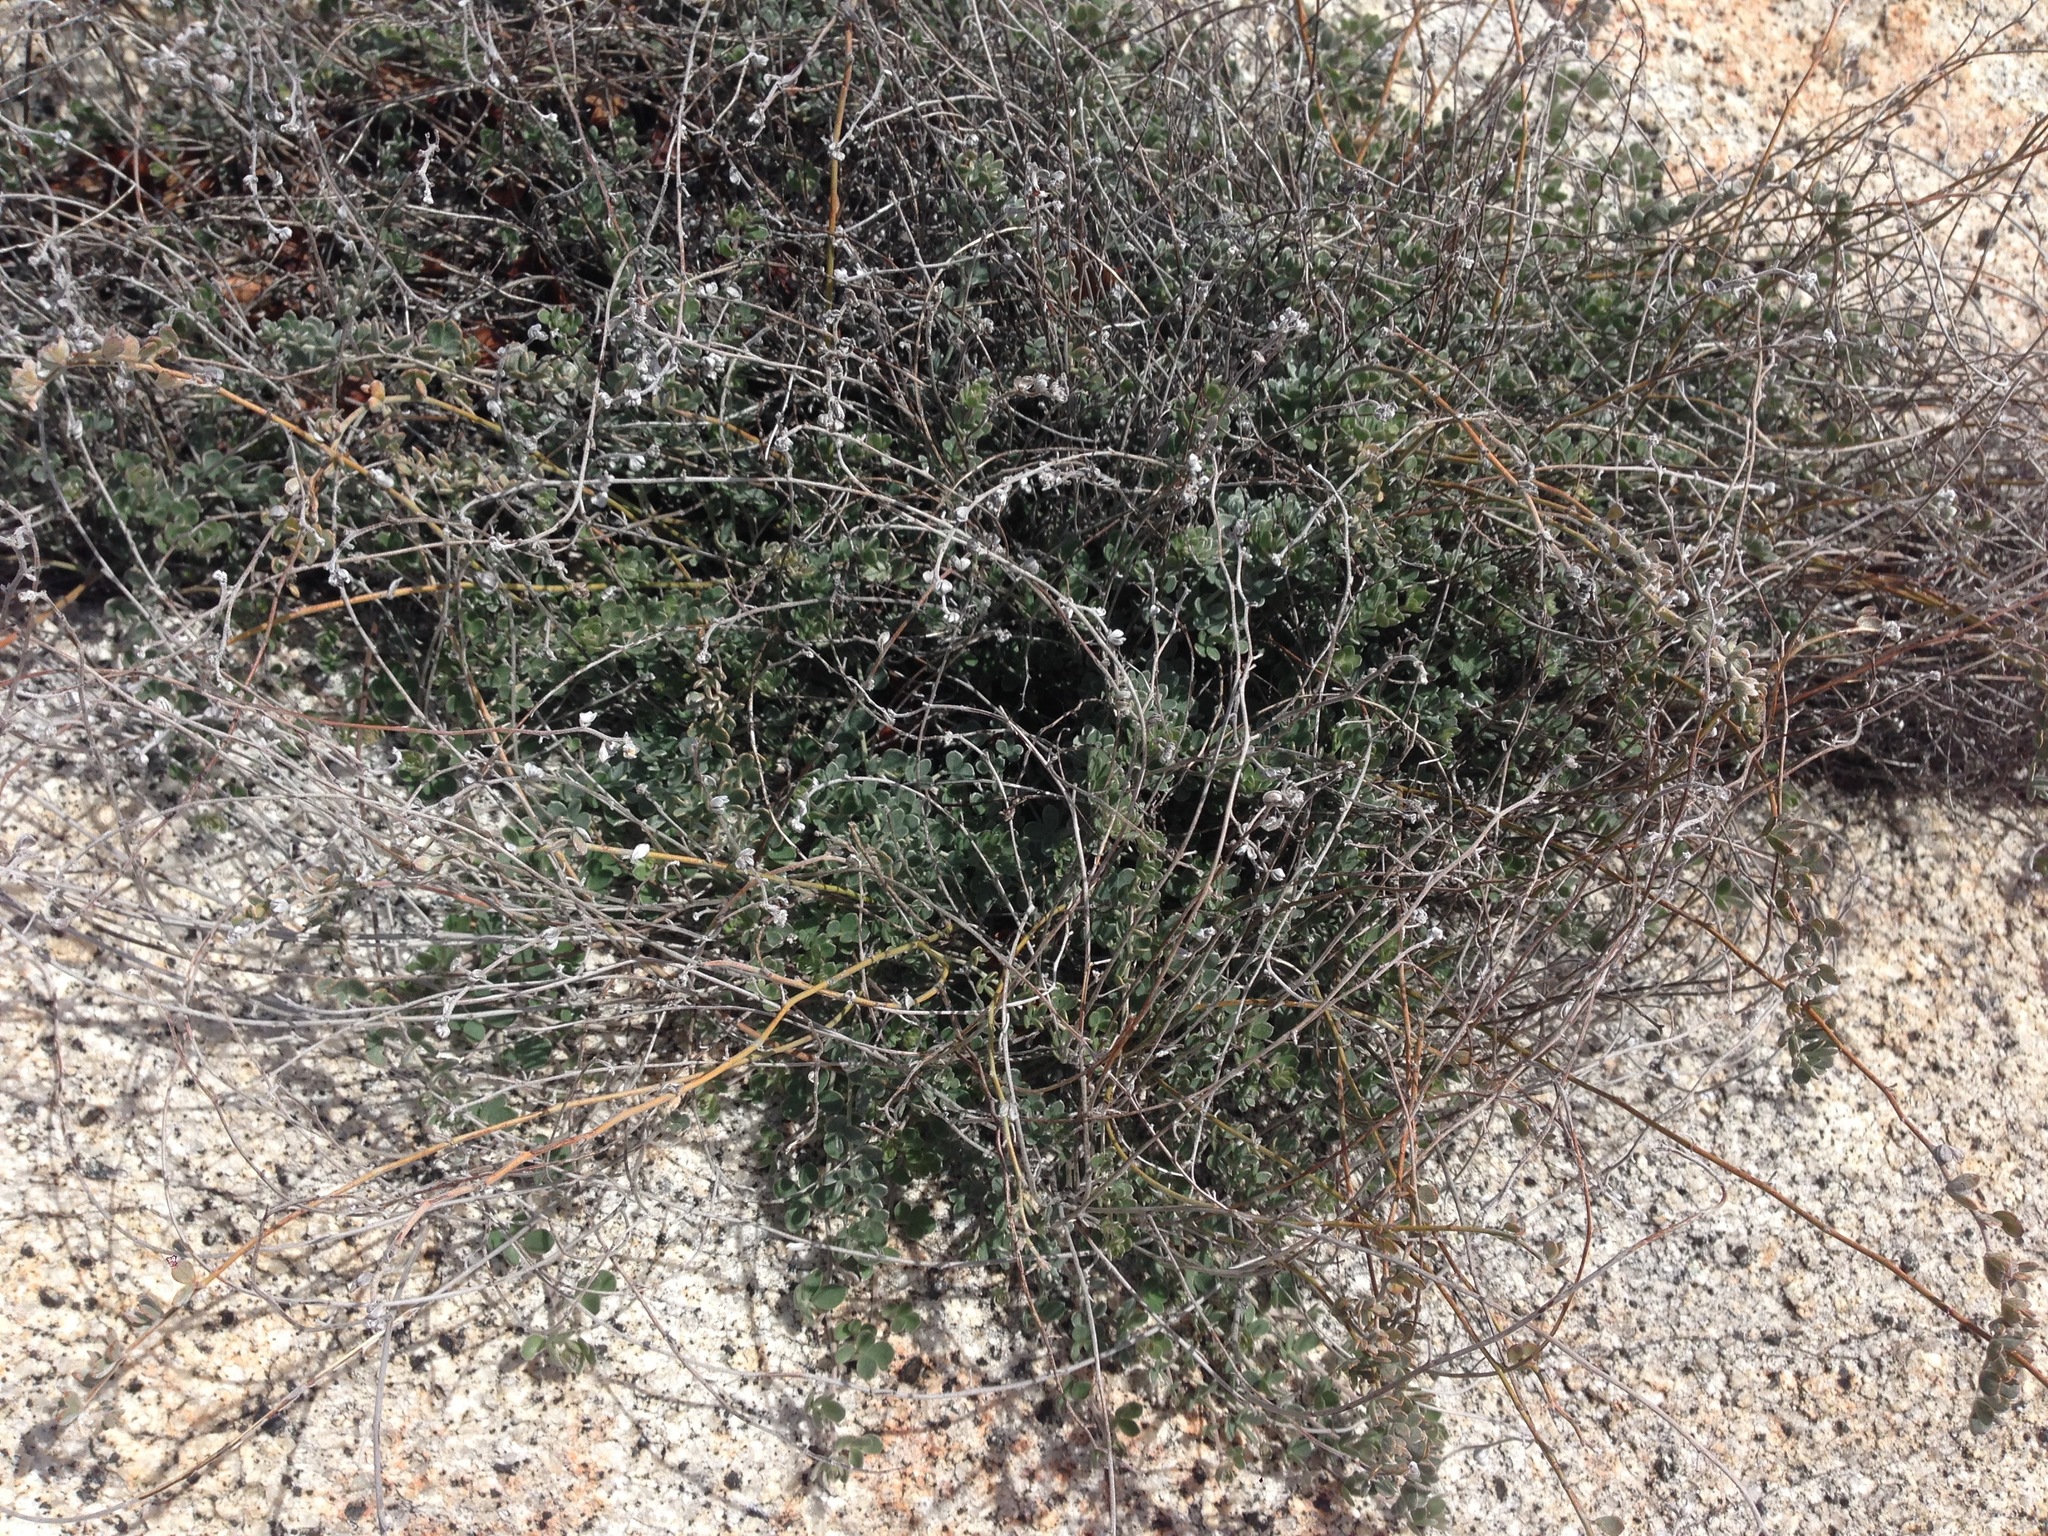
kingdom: Plantae
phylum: Tracheophyta
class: Magnoliopsida
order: Fabales
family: Fabaceae
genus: Acmispon
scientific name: Acmispon argophyllus
